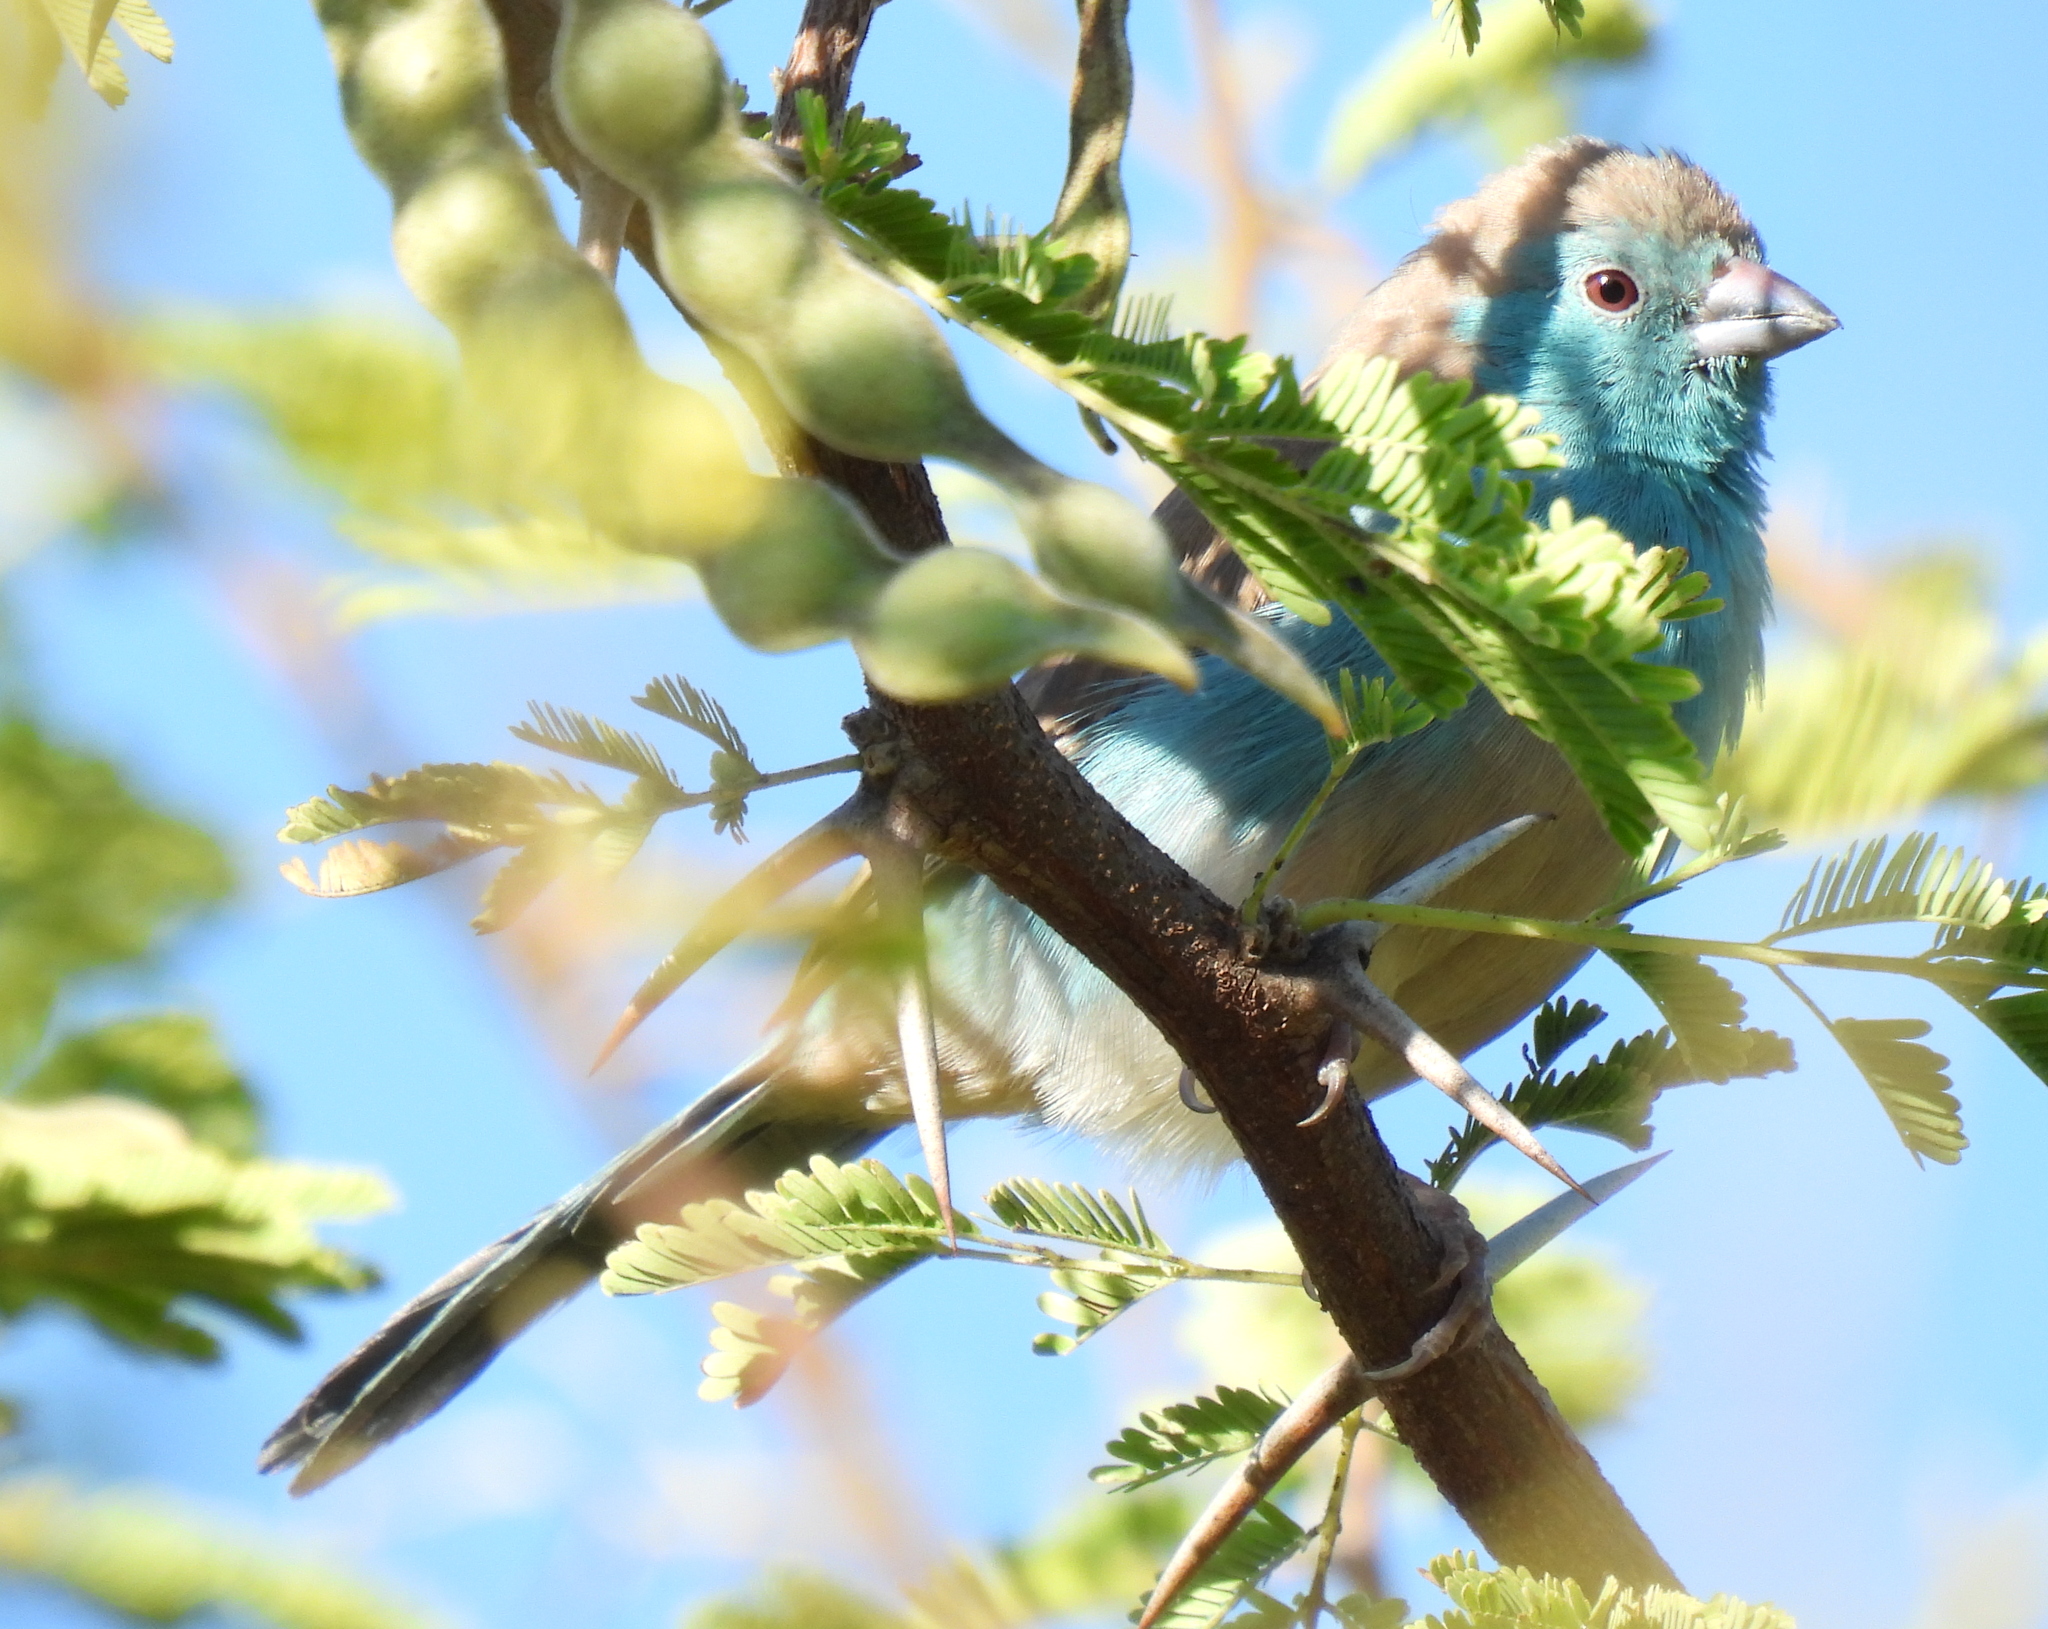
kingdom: Animalia
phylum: Chordata
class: Aves
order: Passeriformes
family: Estrildidae
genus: Uraeginthus
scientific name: Uraeginthus angolensis
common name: Blue waxbill
